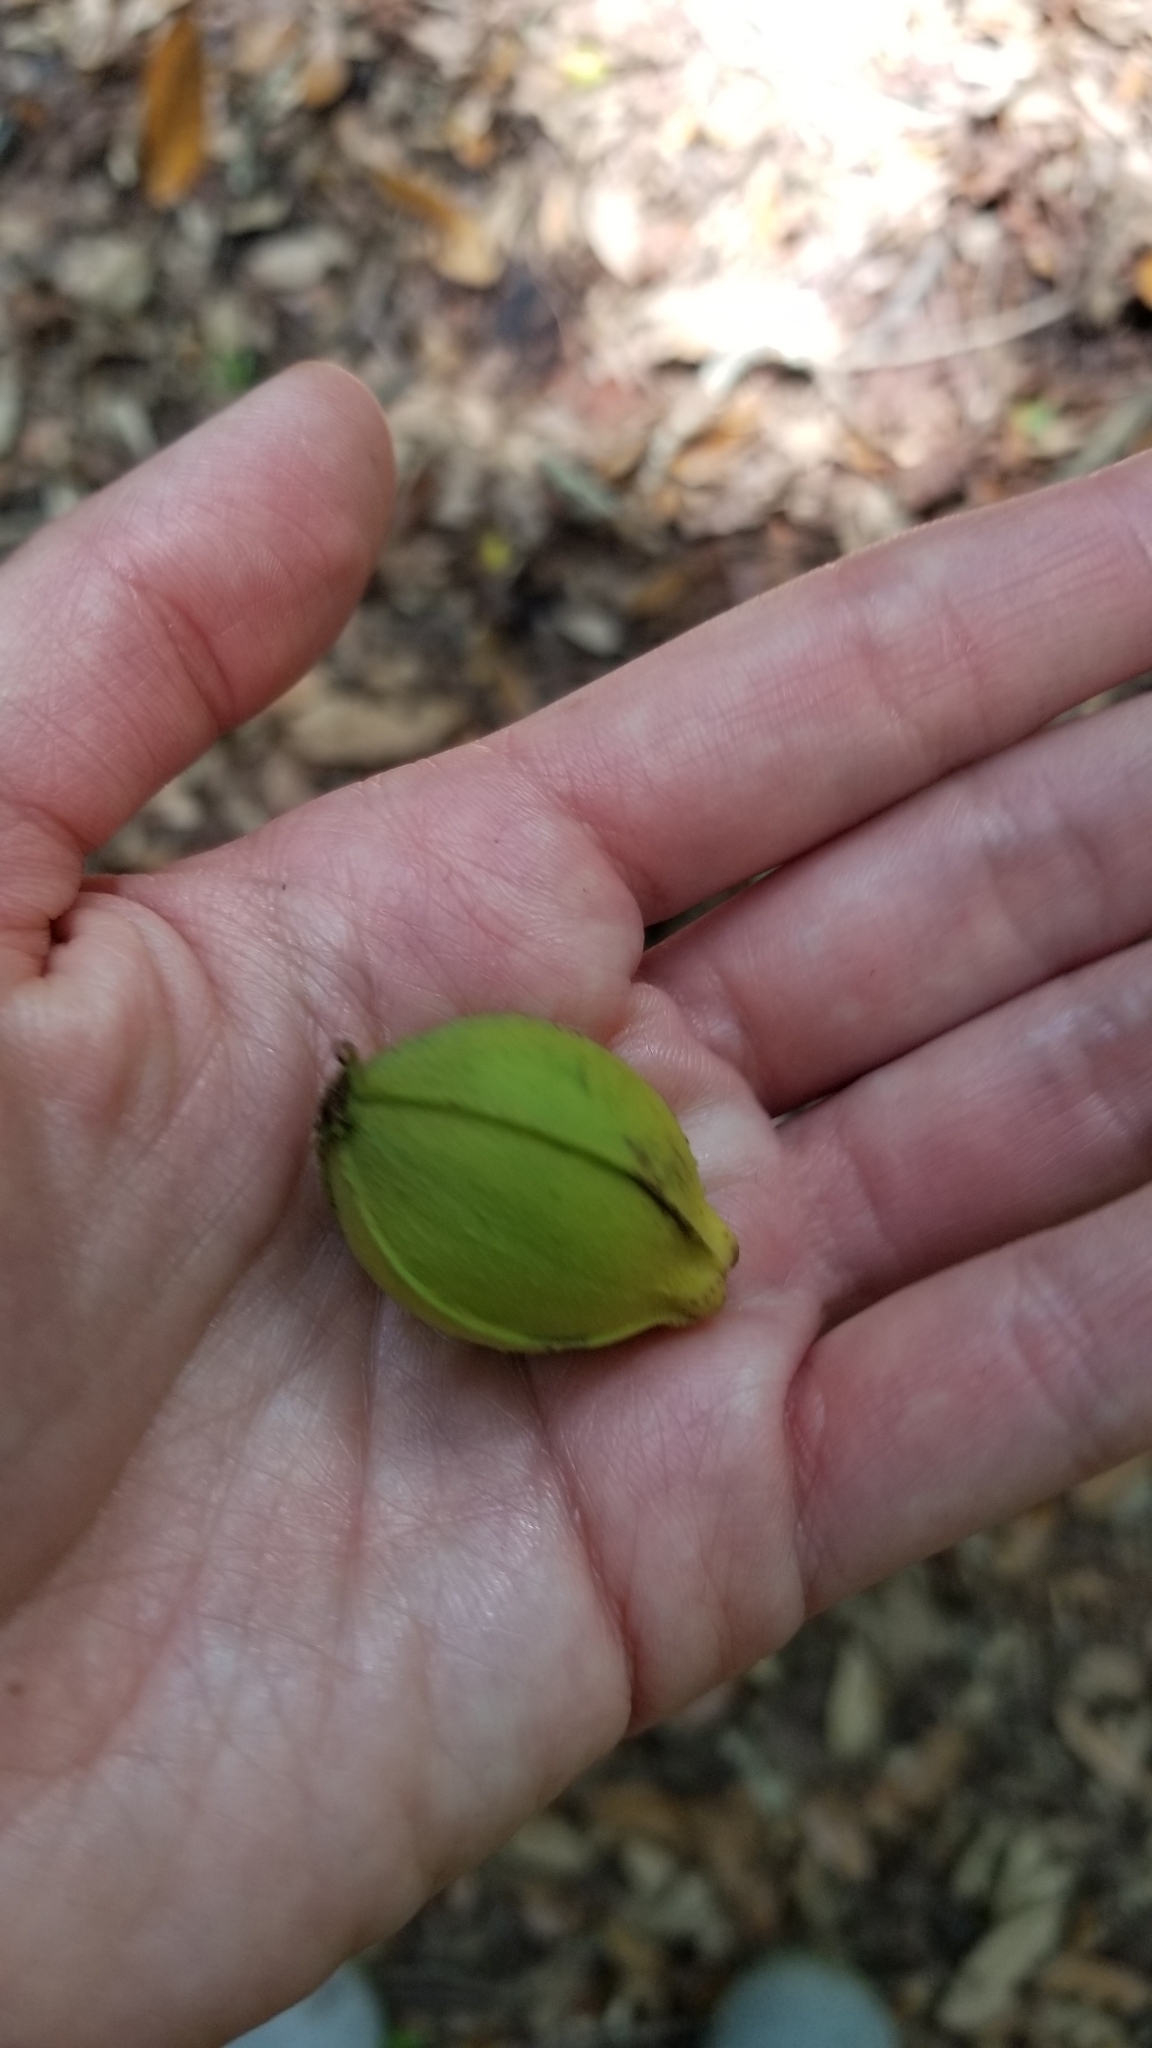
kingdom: Plantae
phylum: Tracheophyta
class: Magnoliopsida
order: Fagales
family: Juglandaceae
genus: Carya
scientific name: Carya illinoinensis
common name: Pecan
